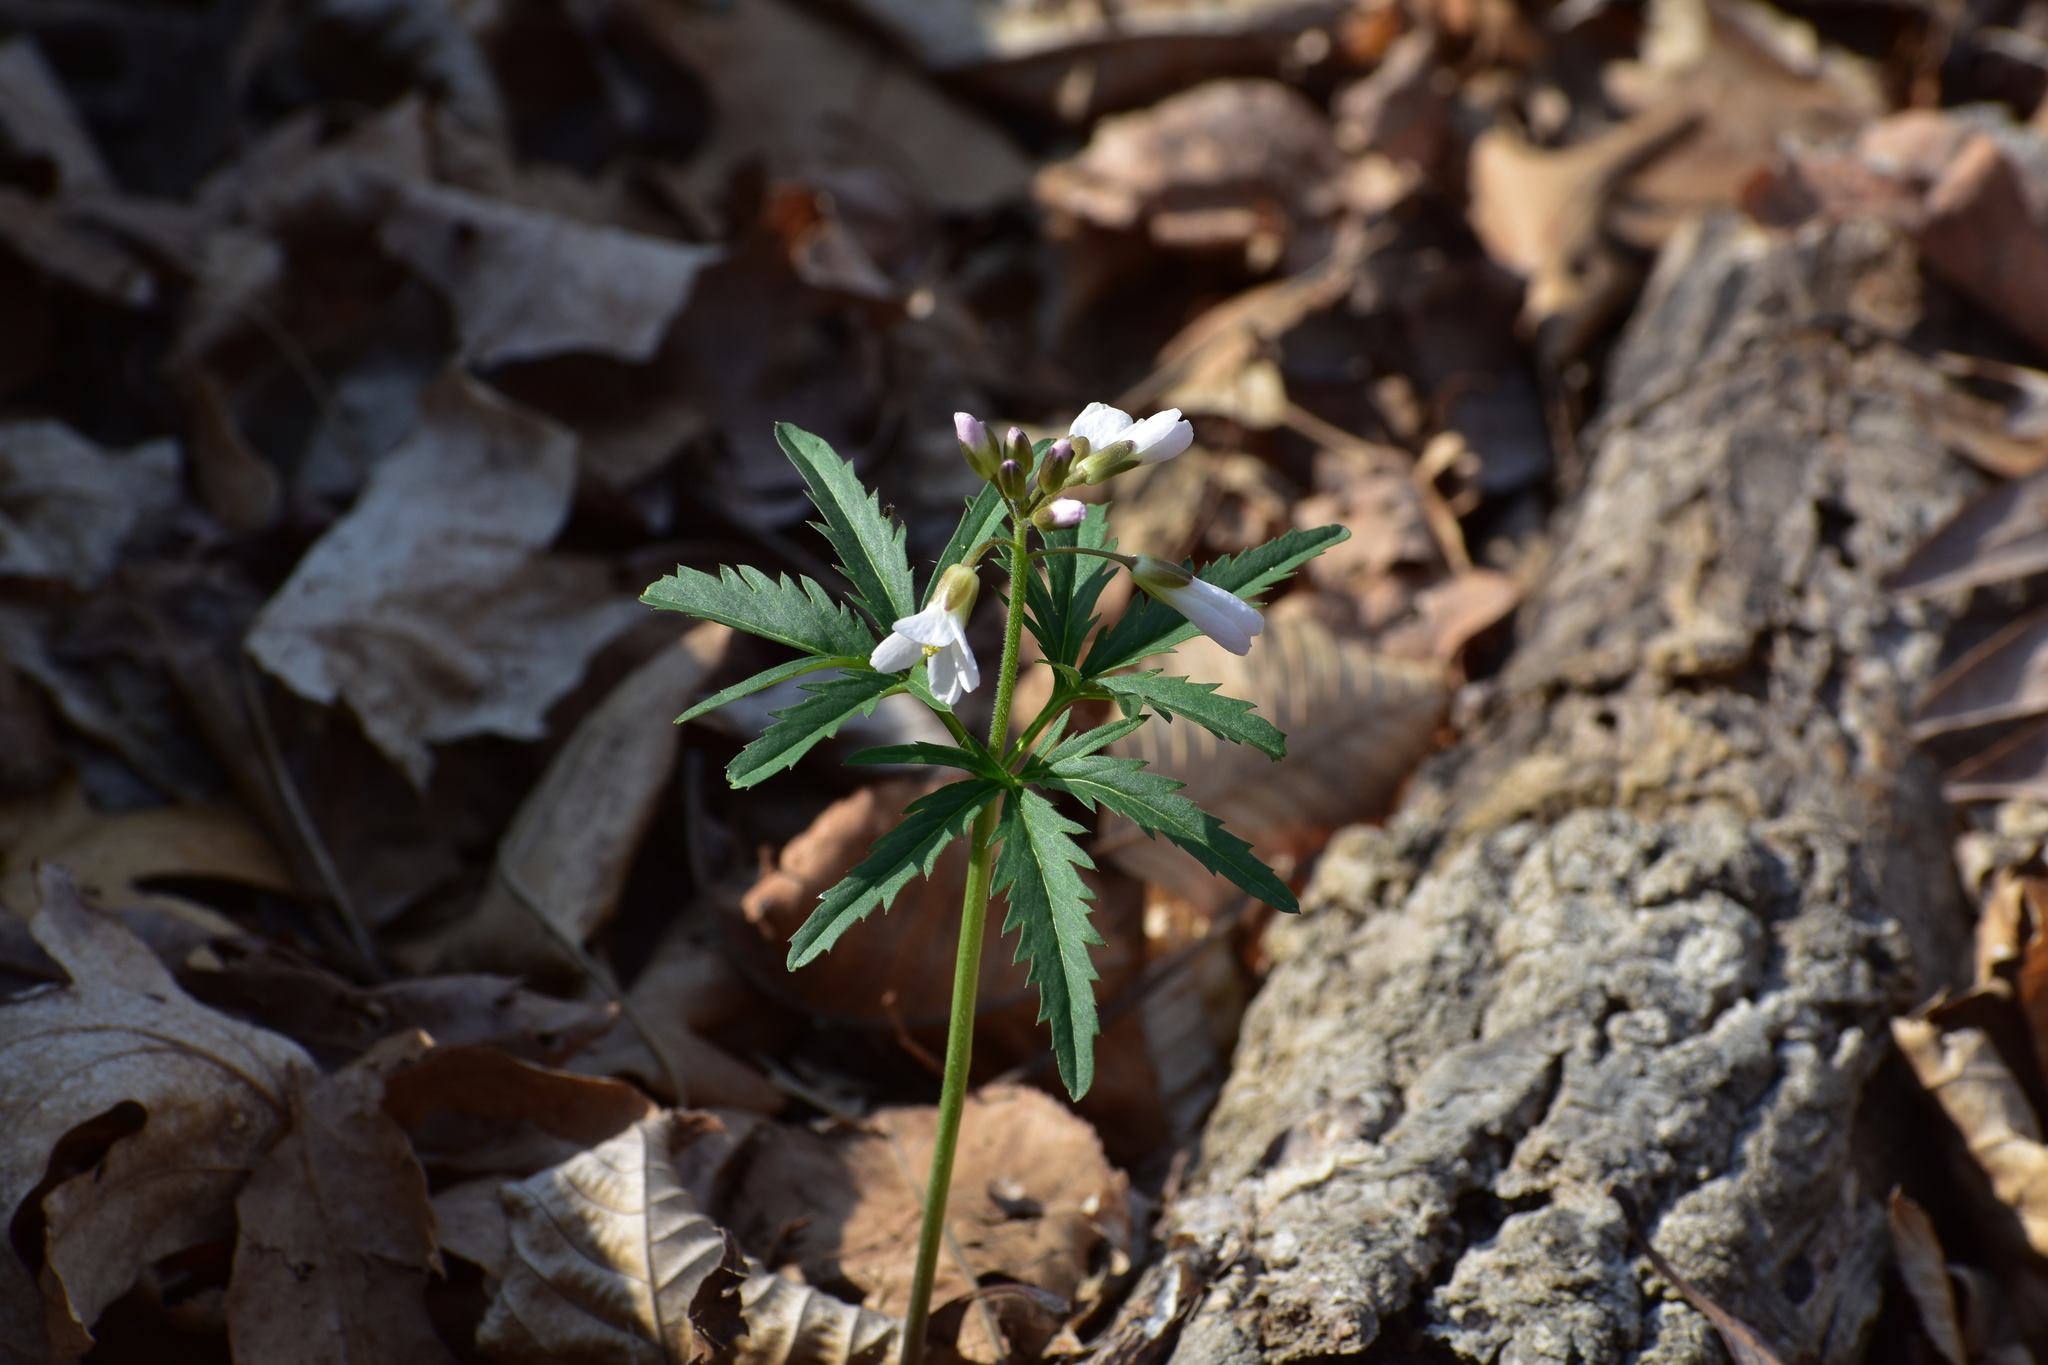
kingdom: Plantae
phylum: Tracheophyta
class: Magnoliopsida
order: Brassicales
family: Brassicaceae
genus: Cardamine
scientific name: Cardamine concatenata
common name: Cut-leaf toothcup
